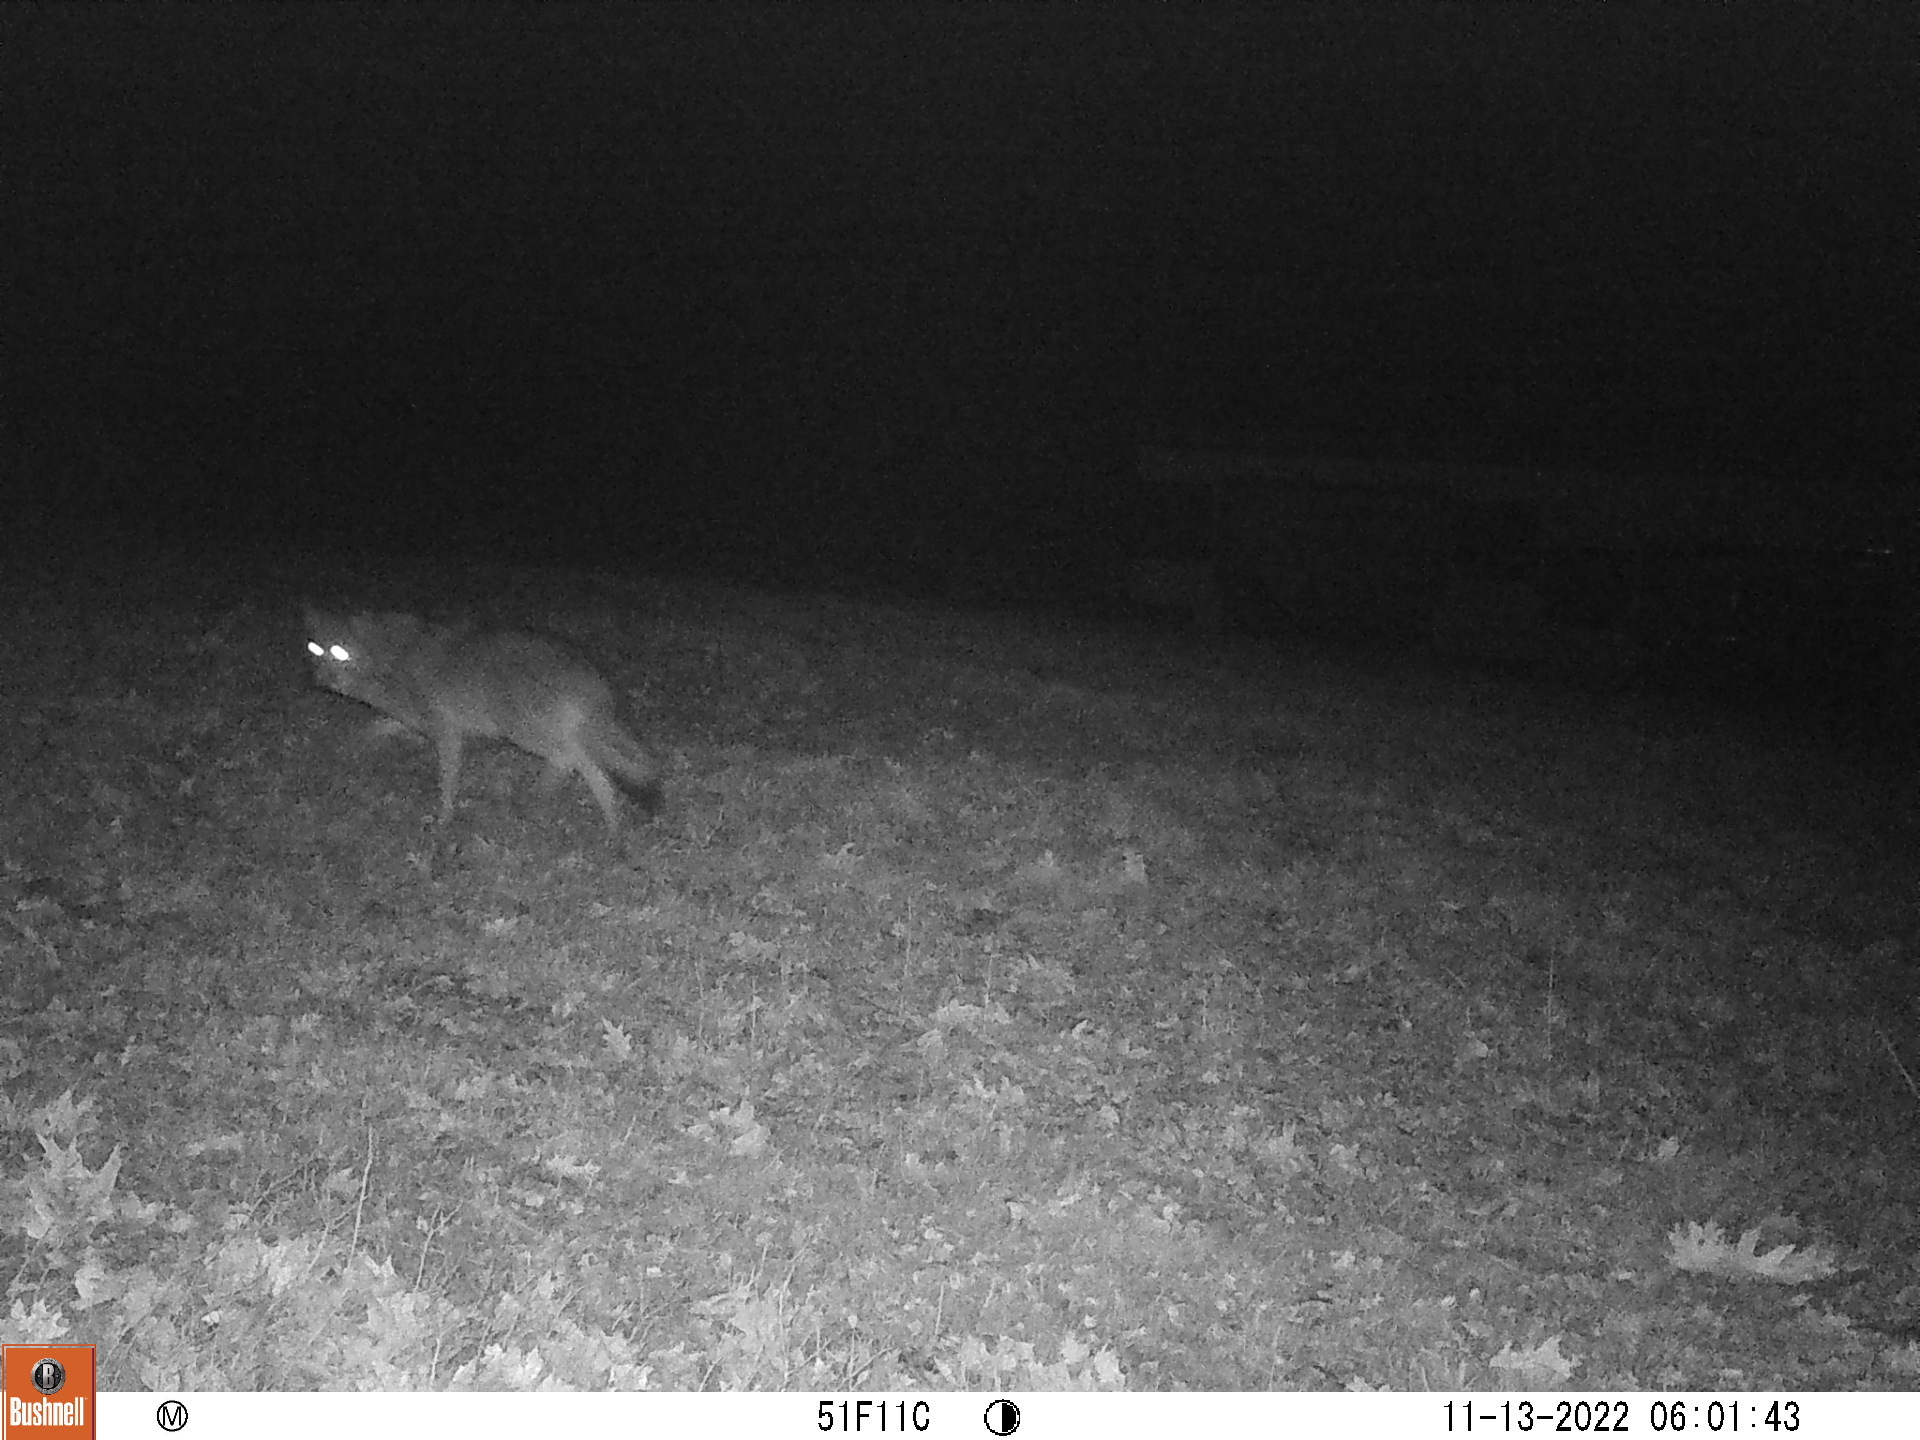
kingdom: Animalia
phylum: Chordata
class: Mammalia
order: Carnivora
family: Canidae
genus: Canis
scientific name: Canis latrans
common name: Coyote
